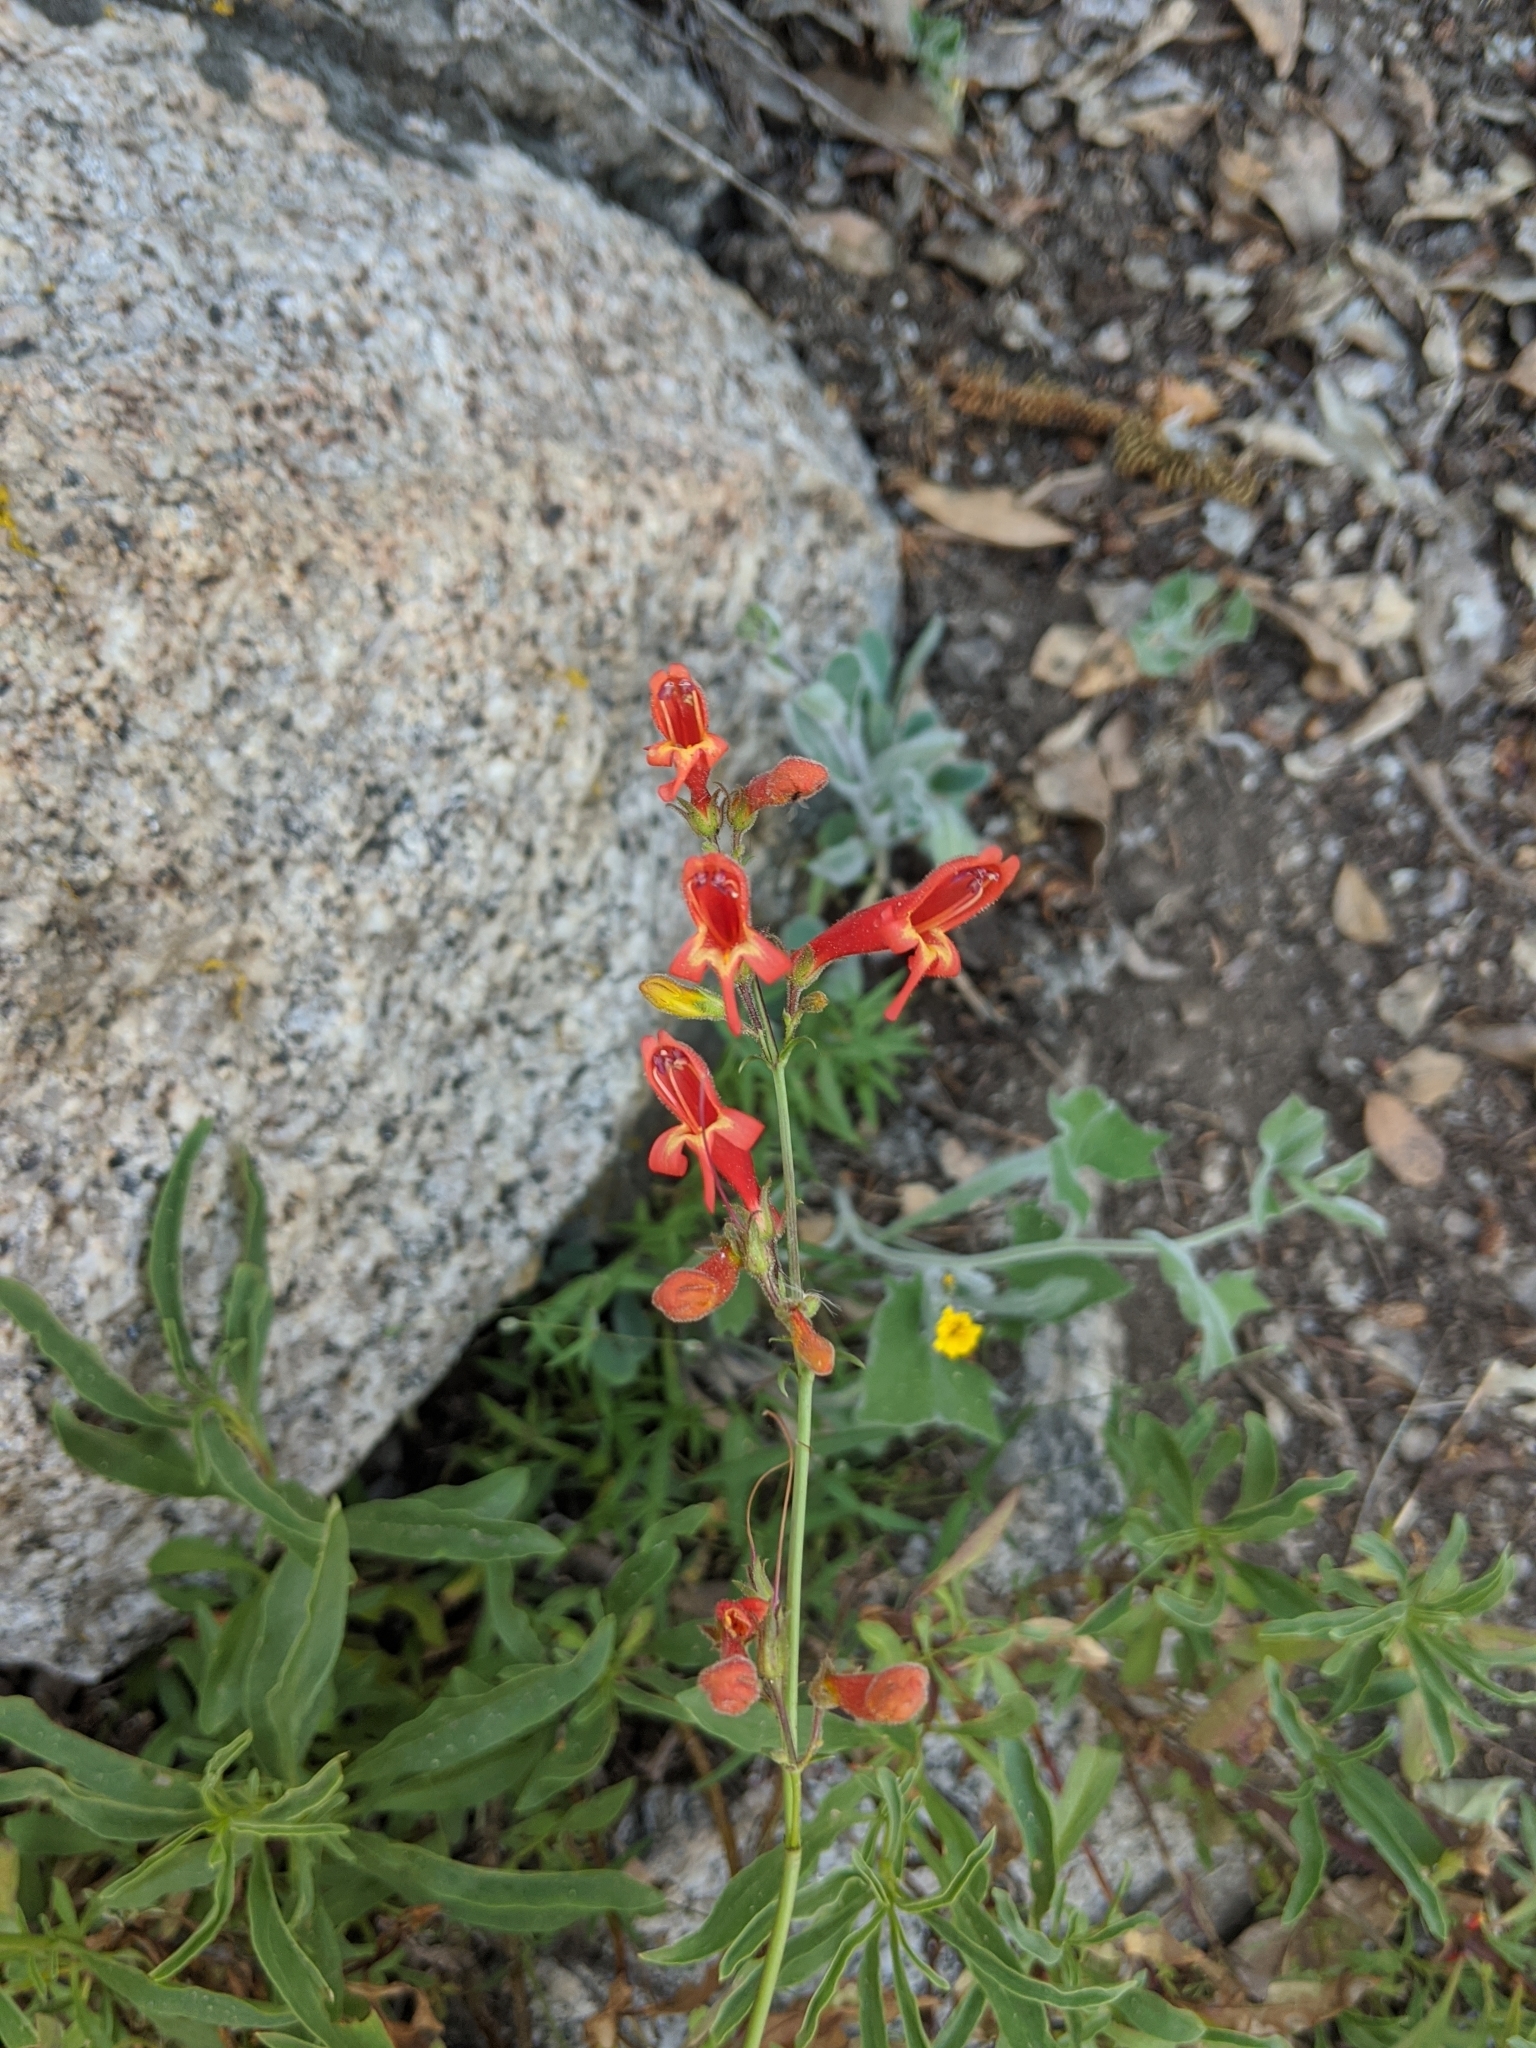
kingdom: Plantae
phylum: Tracheophyta
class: Magnoliopsida
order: Lamiales
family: Plantaginaceae
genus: Penstemon
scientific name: Penstemon rostriflorus
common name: Bridges's penstemon
